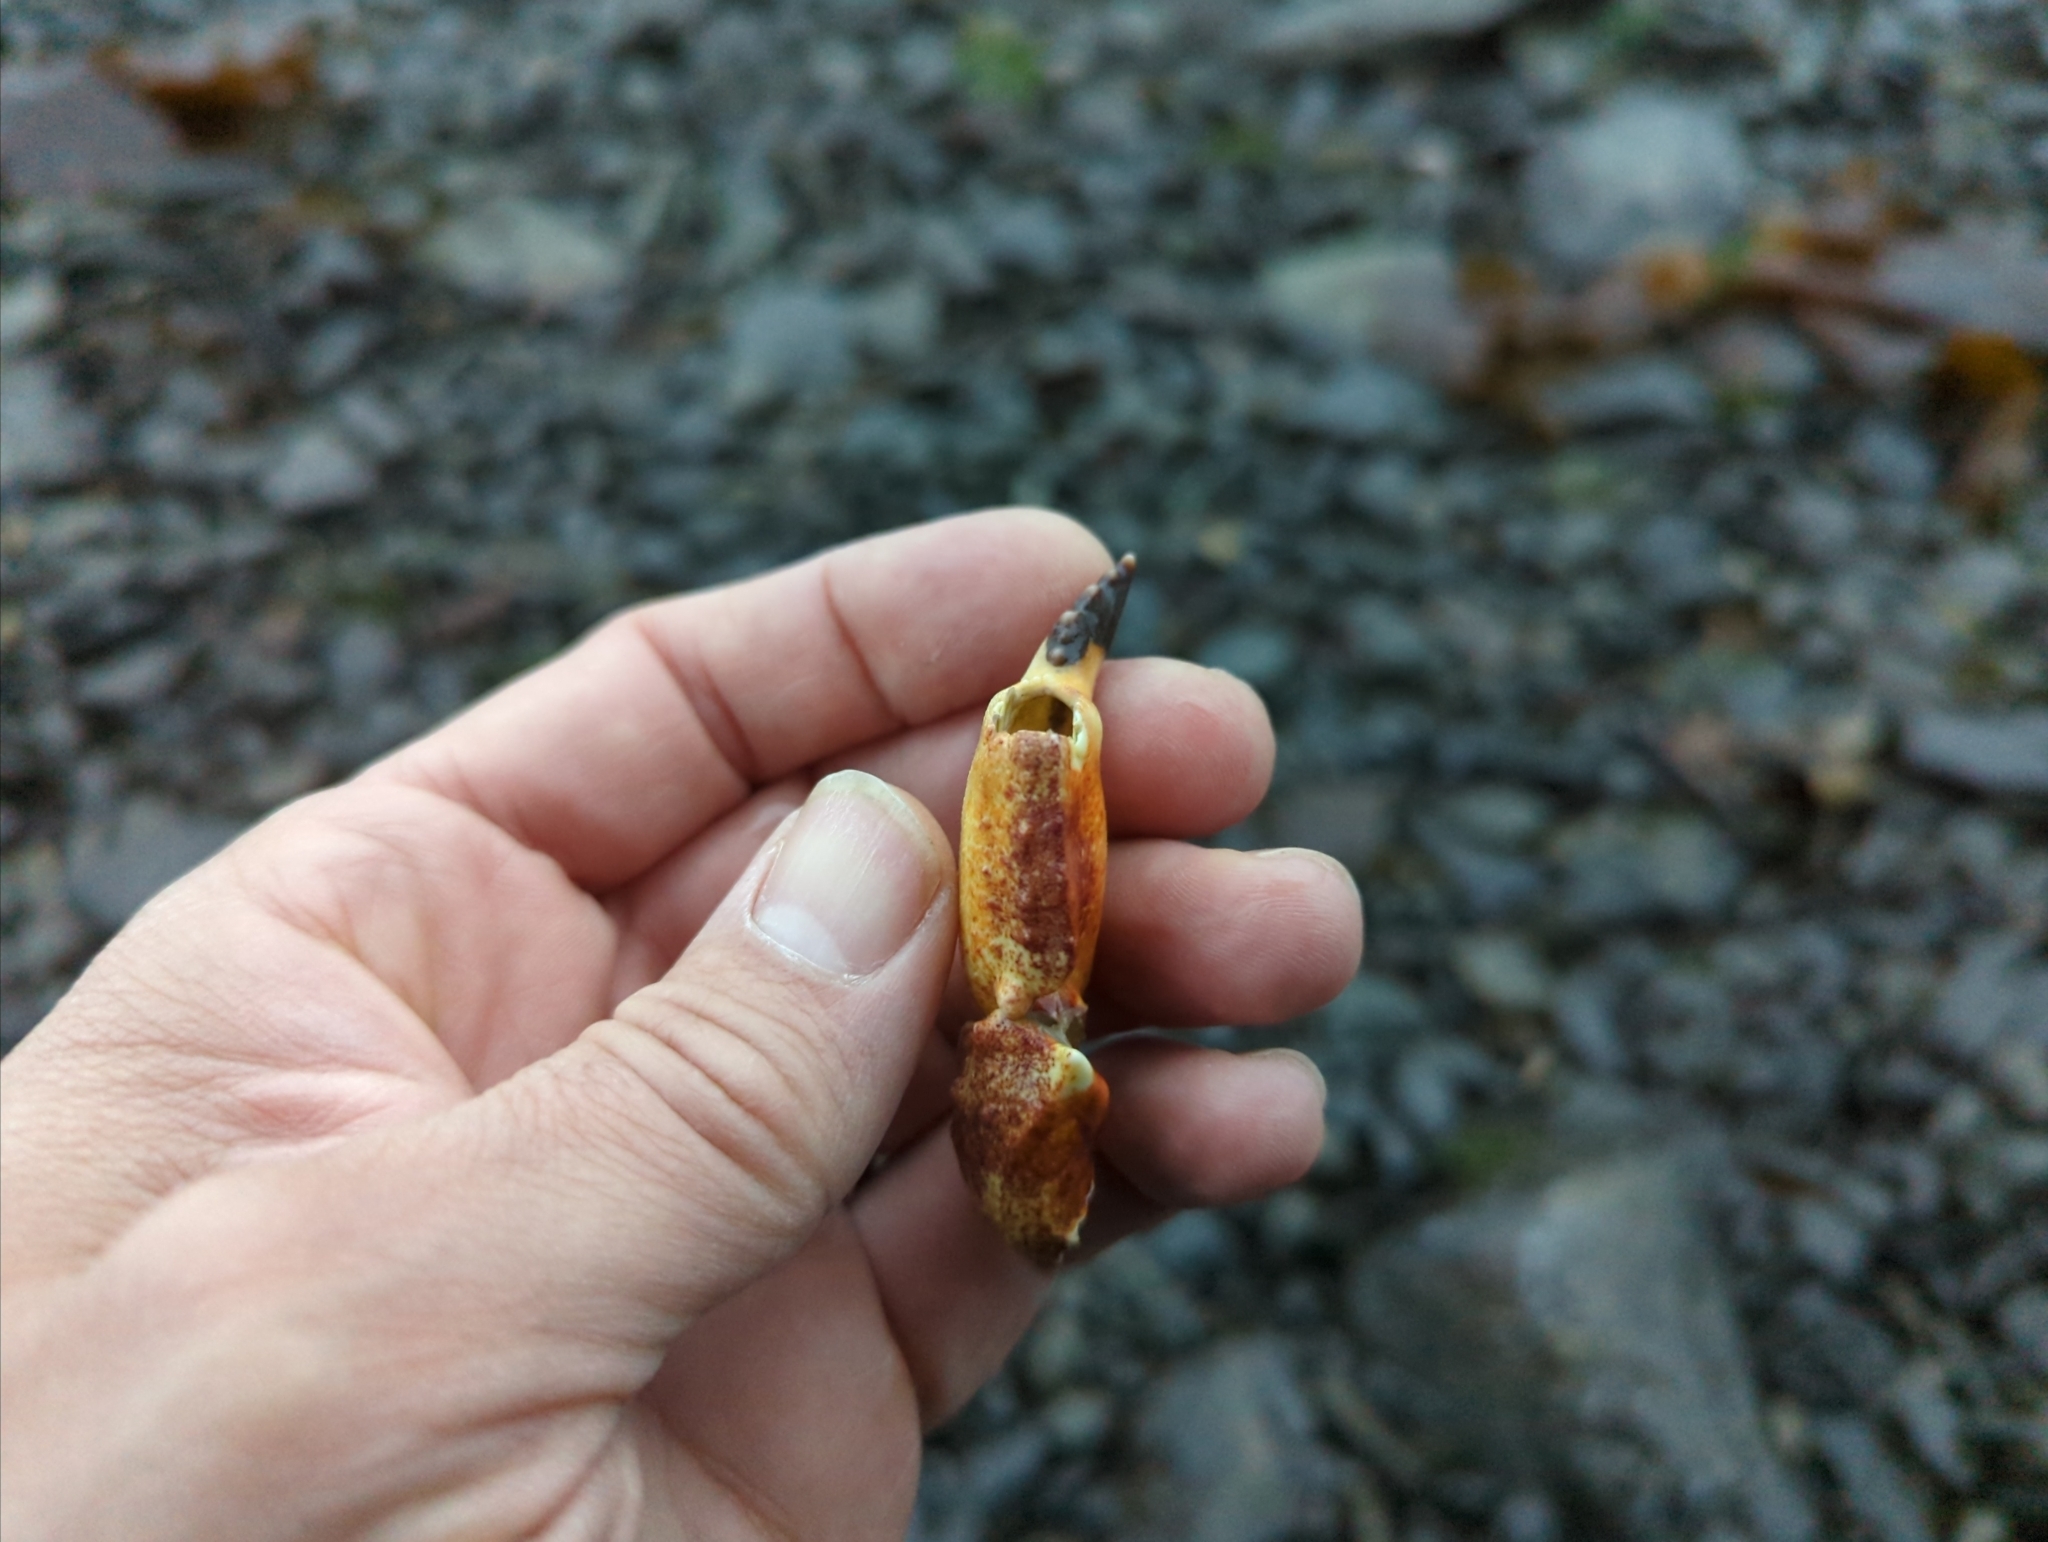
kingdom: Animalia
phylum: Arthropoda
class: Malacostraca
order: Decapoda
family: Cancridae
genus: Cancer
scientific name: Cancer productus
